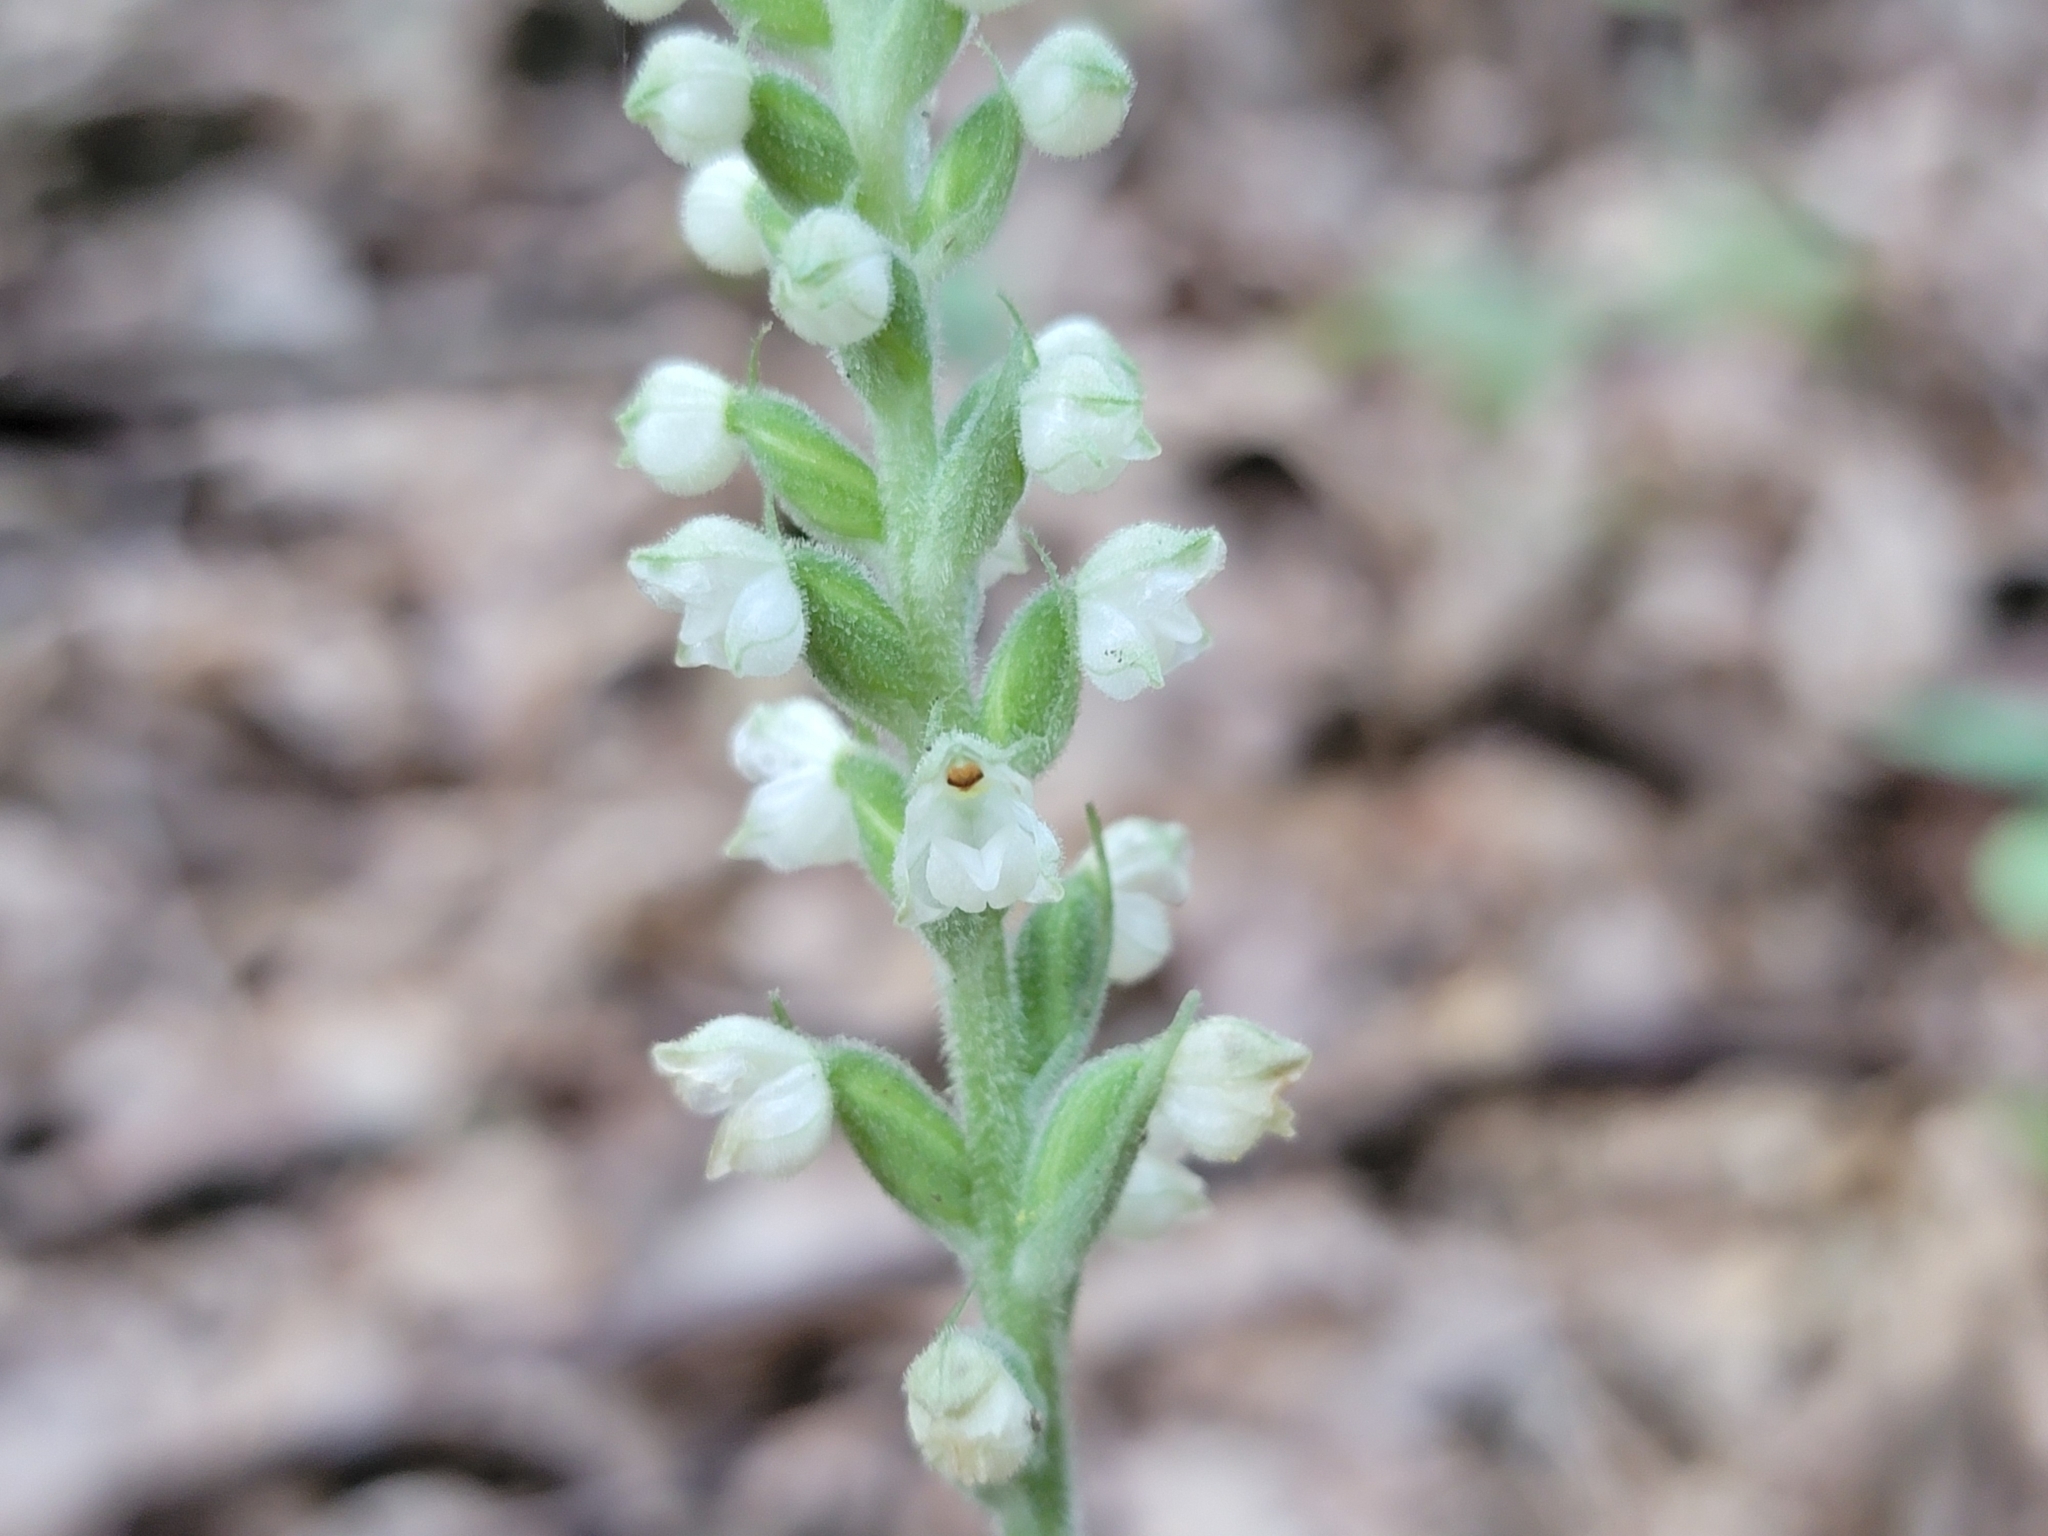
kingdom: Plantae
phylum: Tracheophyta
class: Liliopsida
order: Asparagales
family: Orchidaceae
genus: Goodyera
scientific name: Goodyera pubescens
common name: Downy rattlesnake-plantain
